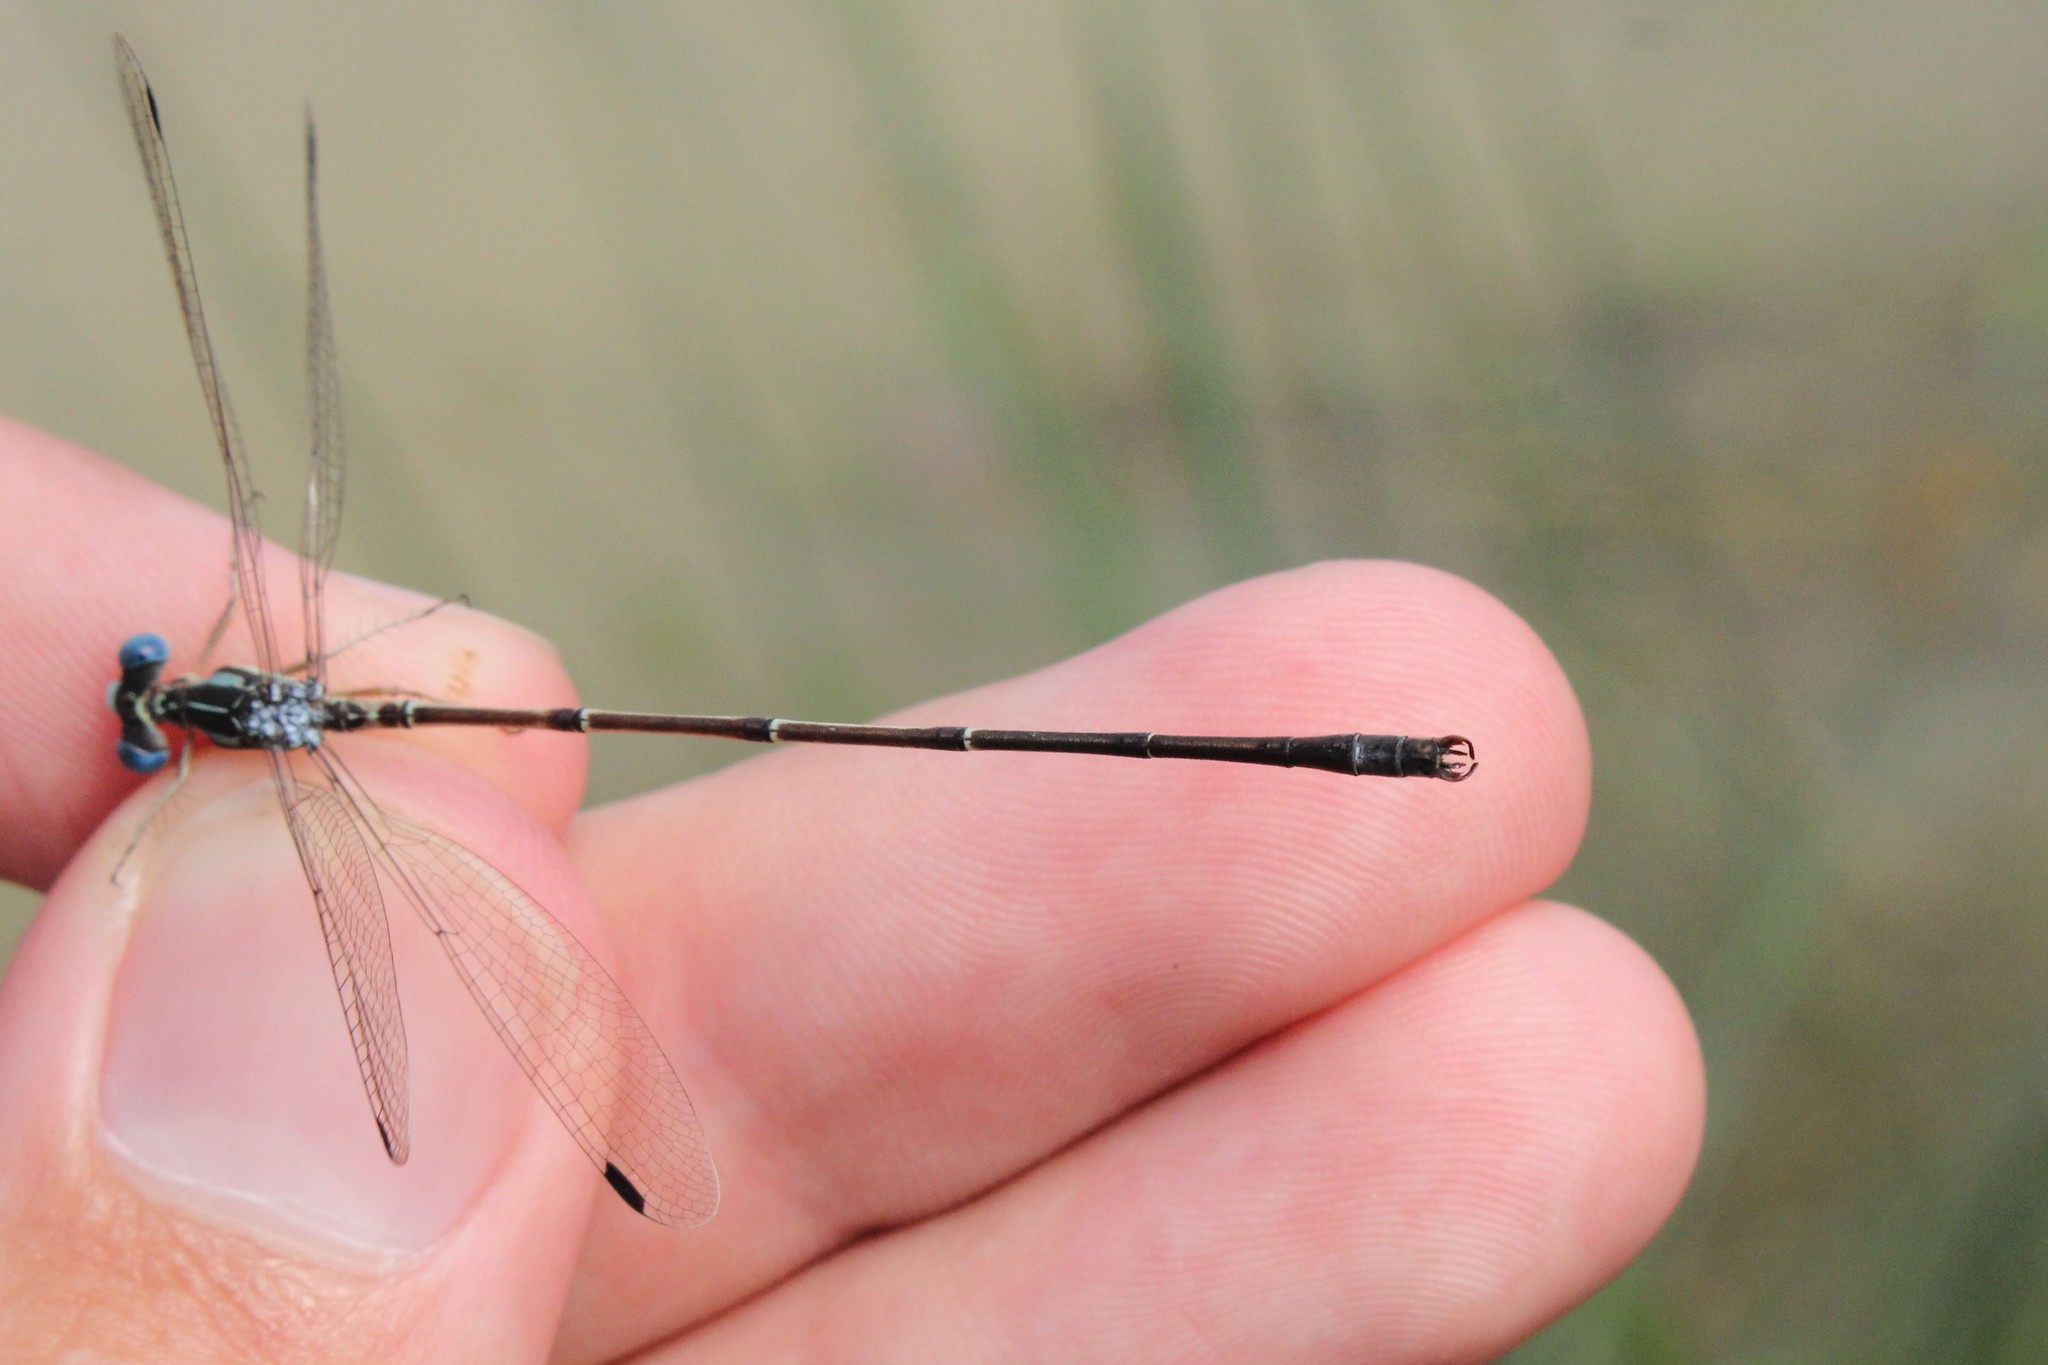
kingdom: Animalia
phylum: Arthropoda
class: Insecta
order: Odonata
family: Lestidae
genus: Lestes
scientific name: Lestes rectangularis
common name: Slender spreadwing
